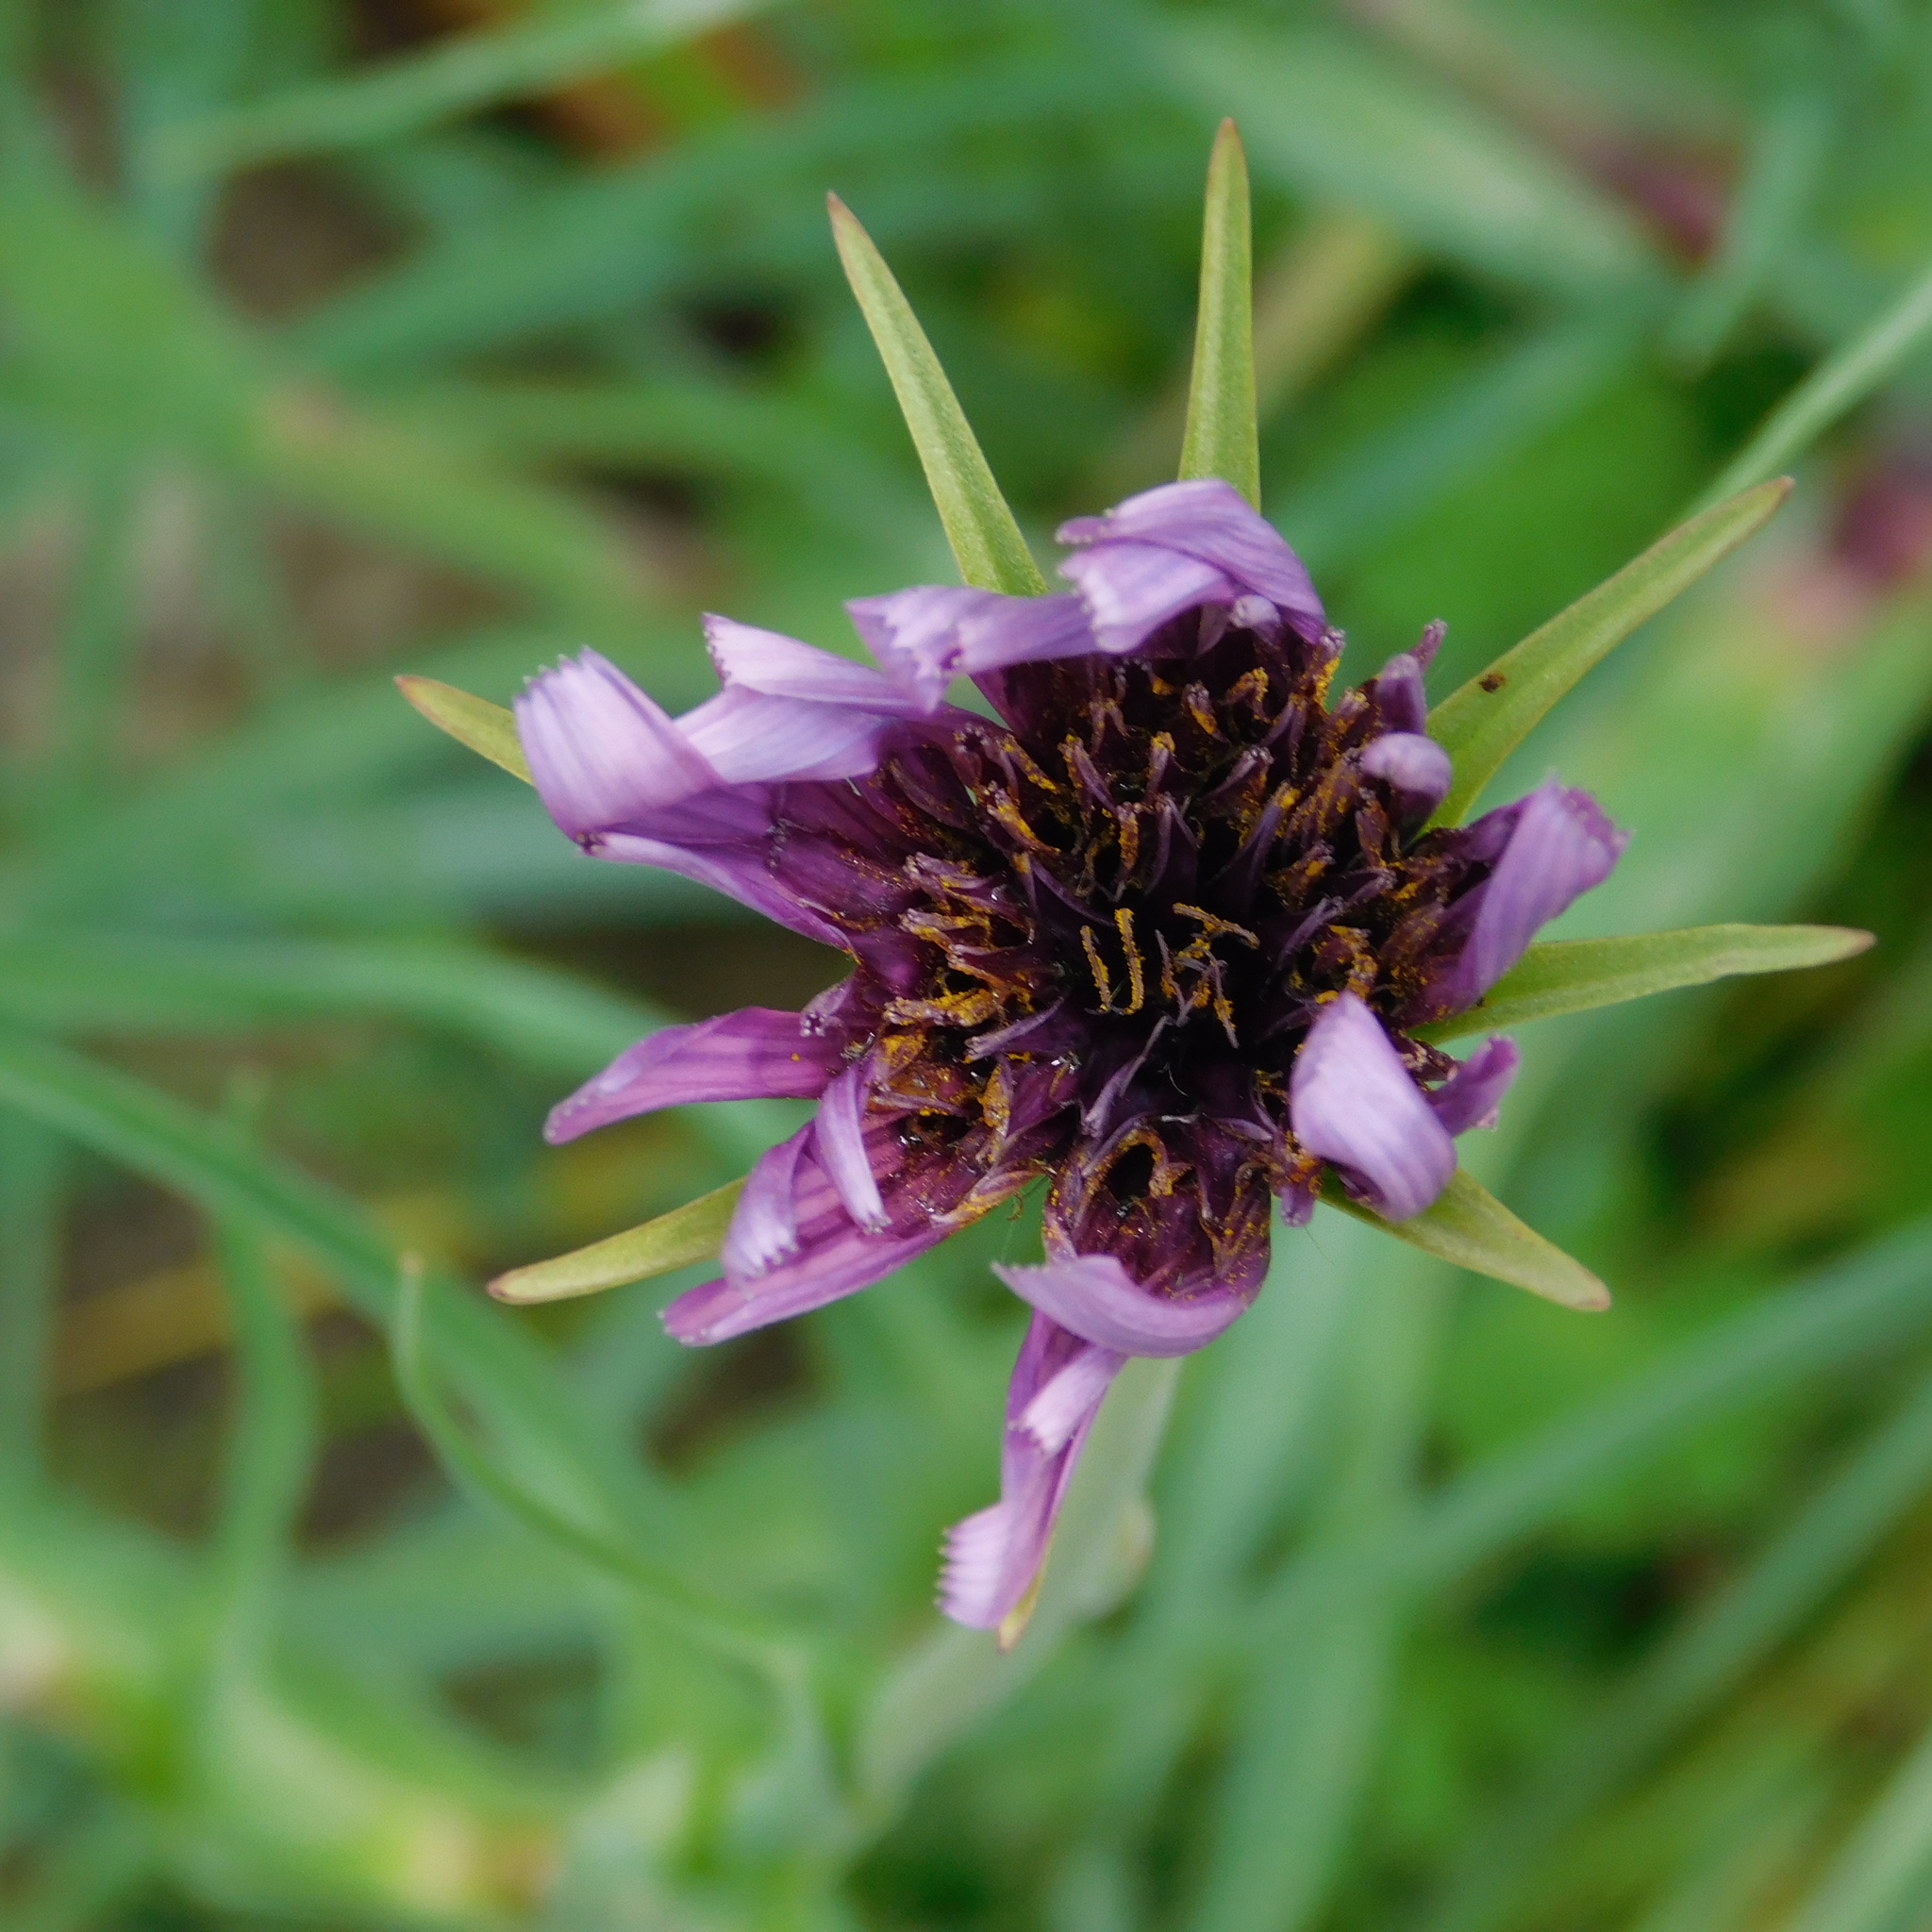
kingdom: Plantae
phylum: Tracheophyta
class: Magnoliopsida
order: Asterales
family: Asteraceae
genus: Tragopogon
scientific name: Tragopogon porrifolius
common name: Salsify
